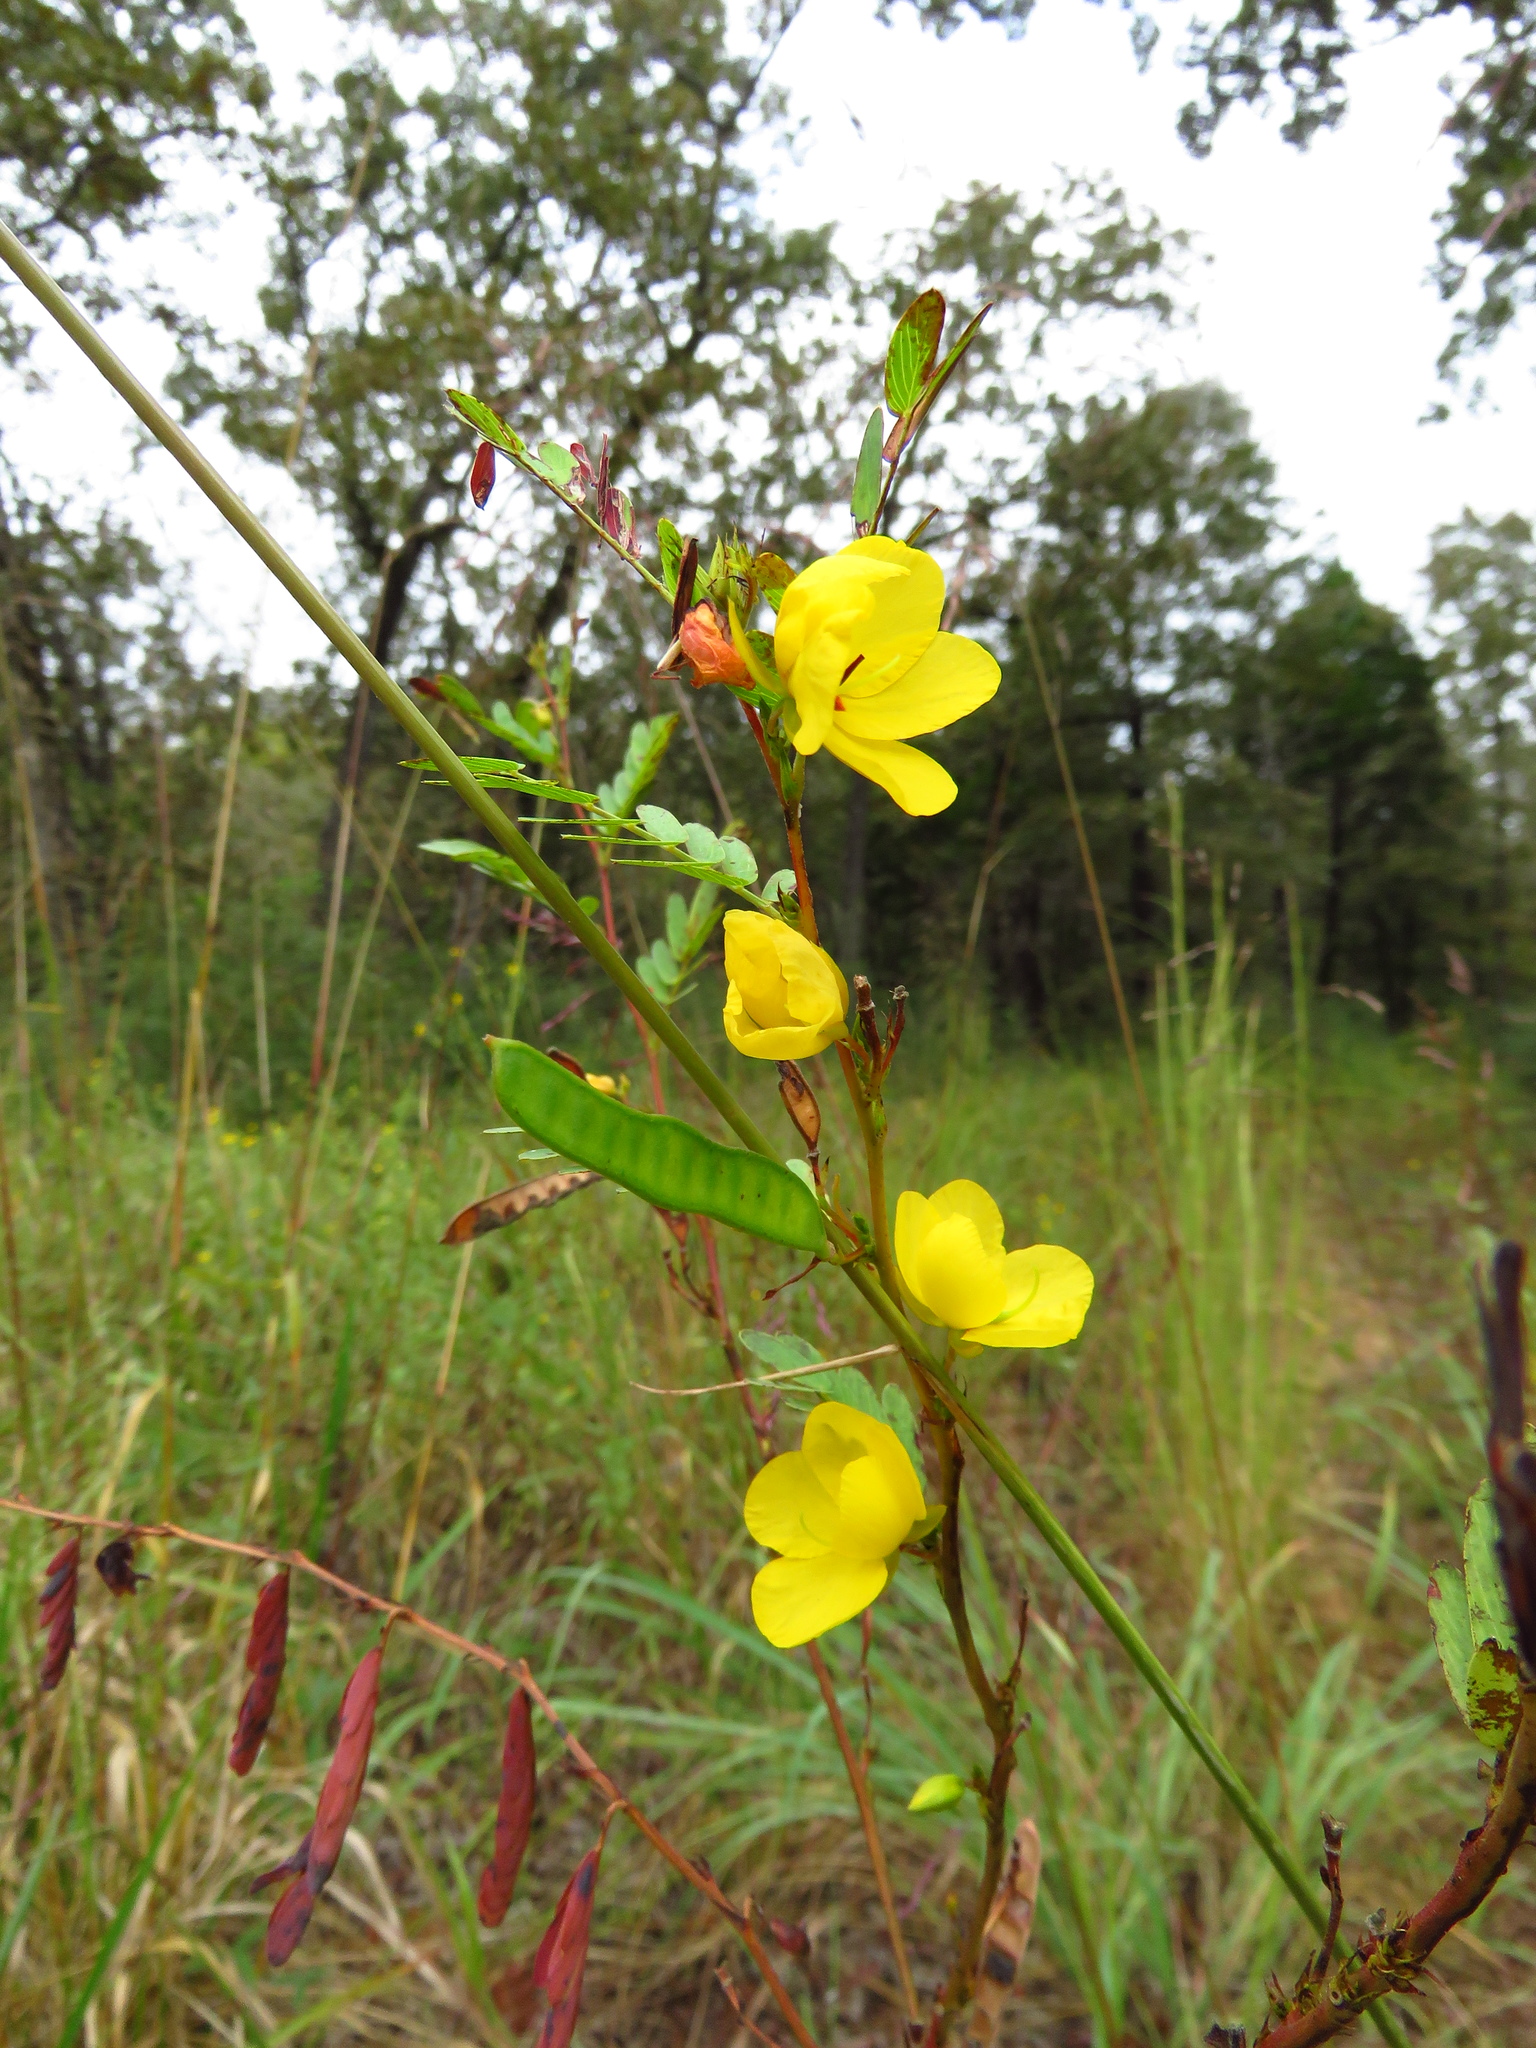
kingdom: Plantae
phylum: Tracheophyta
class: Magnoliopsida
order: Fabales
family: Fabaceae
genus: Chamaecrista
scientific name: Chamaecrista fasciculata
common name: Golden cassia
